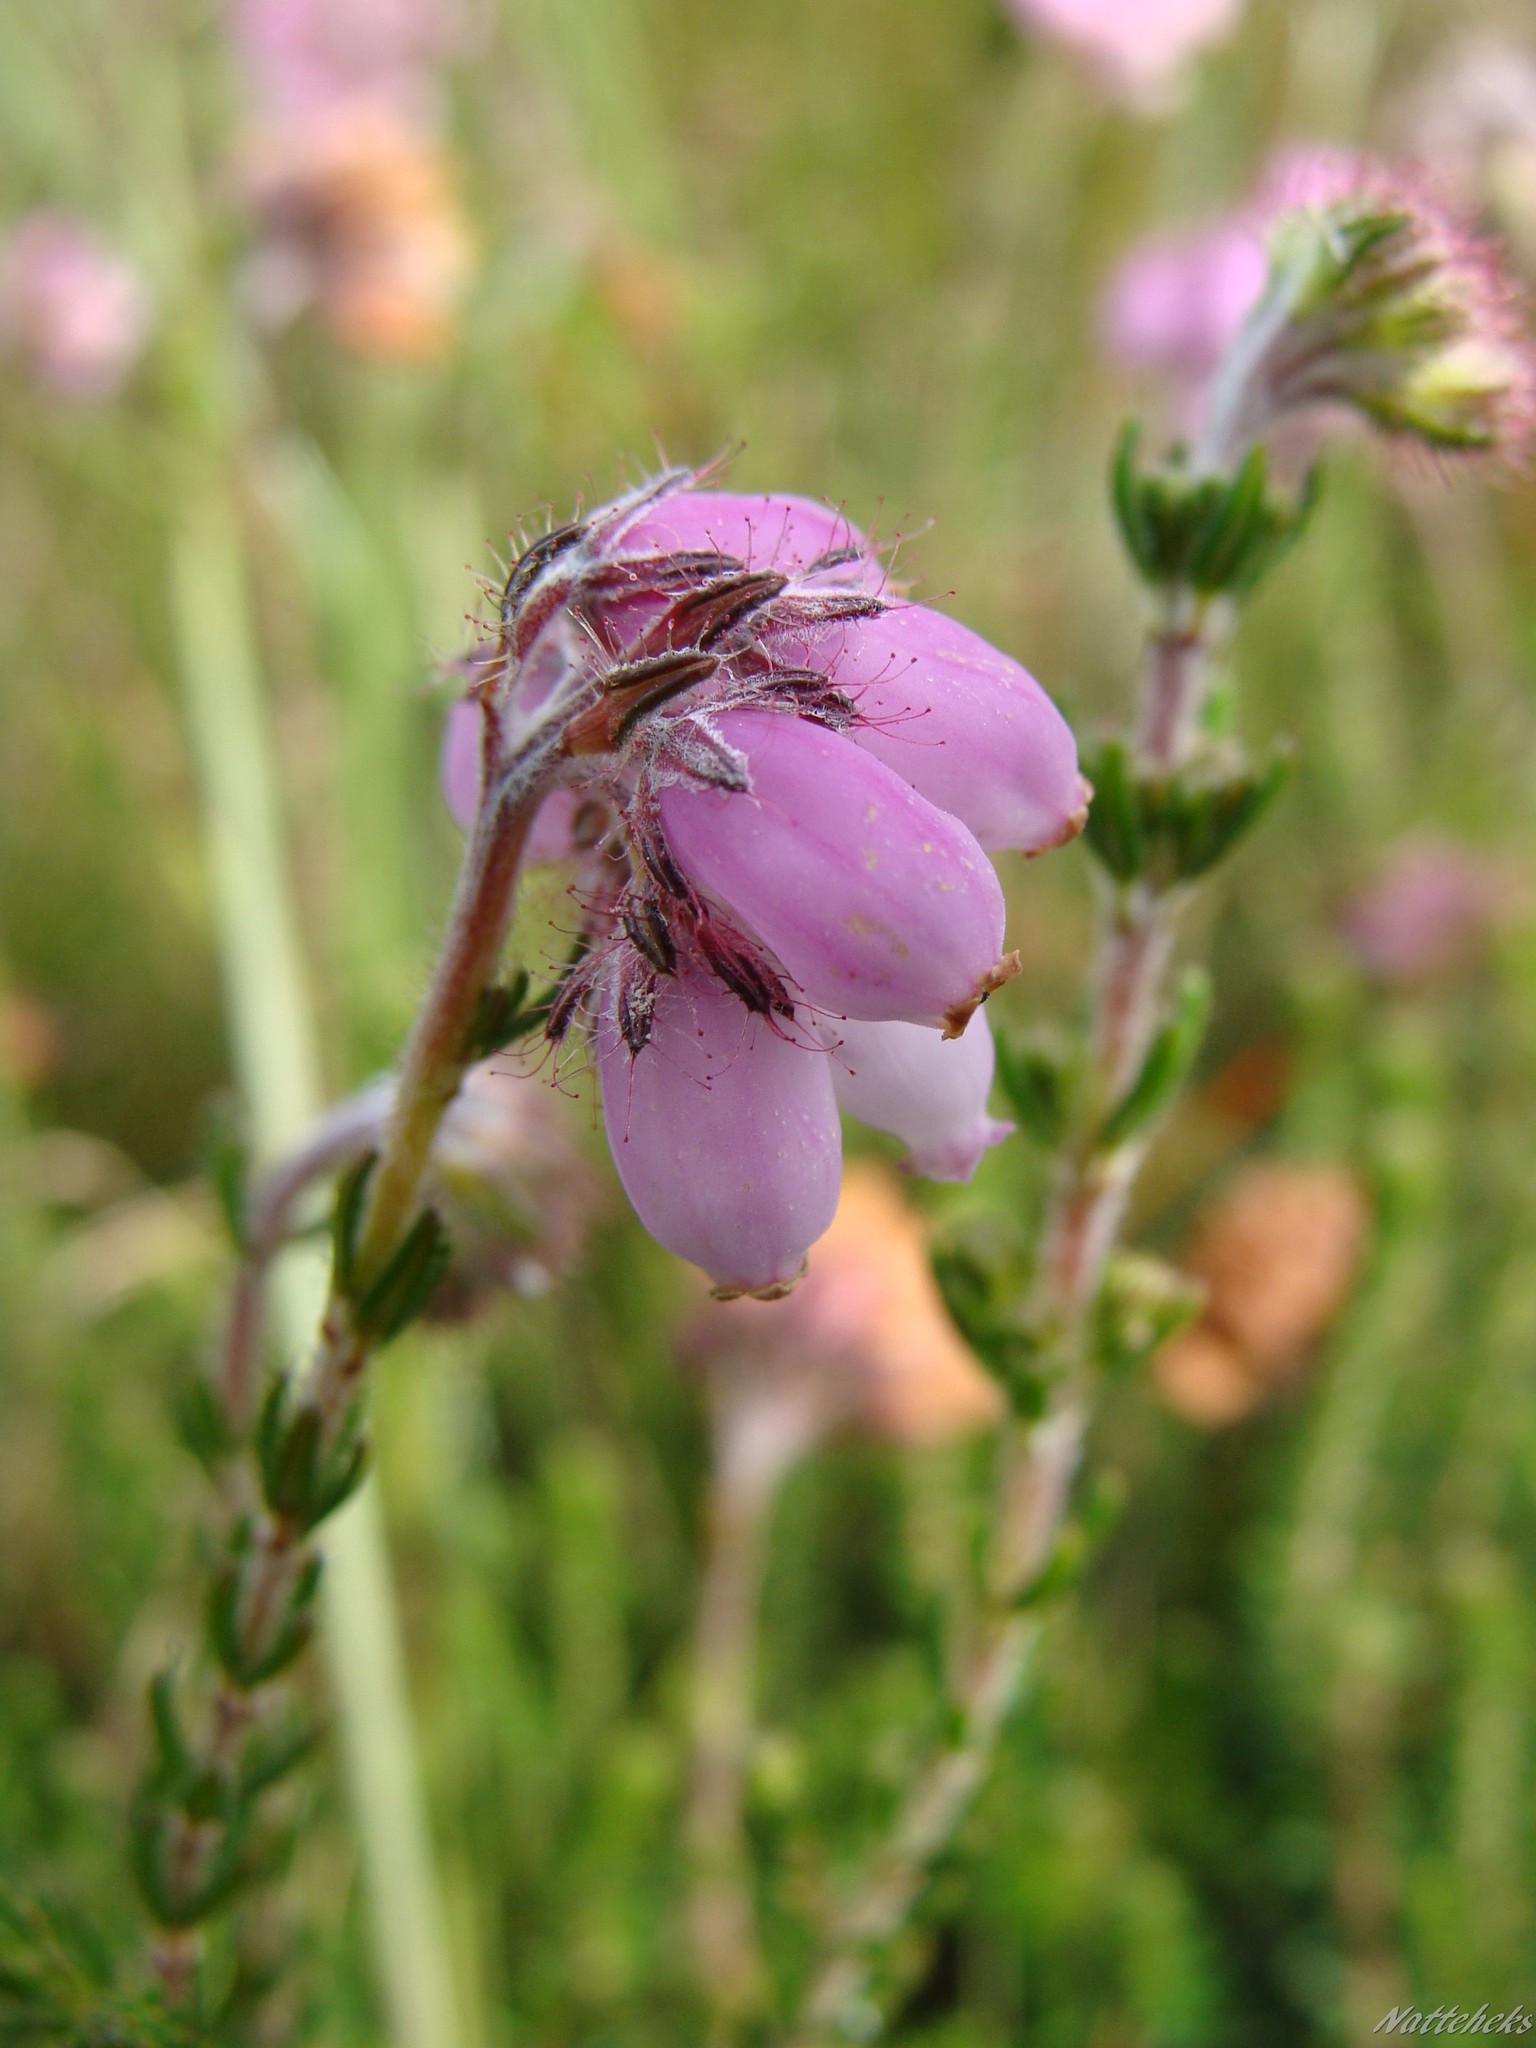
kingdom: Plantae
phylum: Tracheophyta
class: Magnoliopsida
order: Ericales
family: Ericaceae
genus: Erica
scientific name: Erica tetralix
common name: Cross-leaved heath
